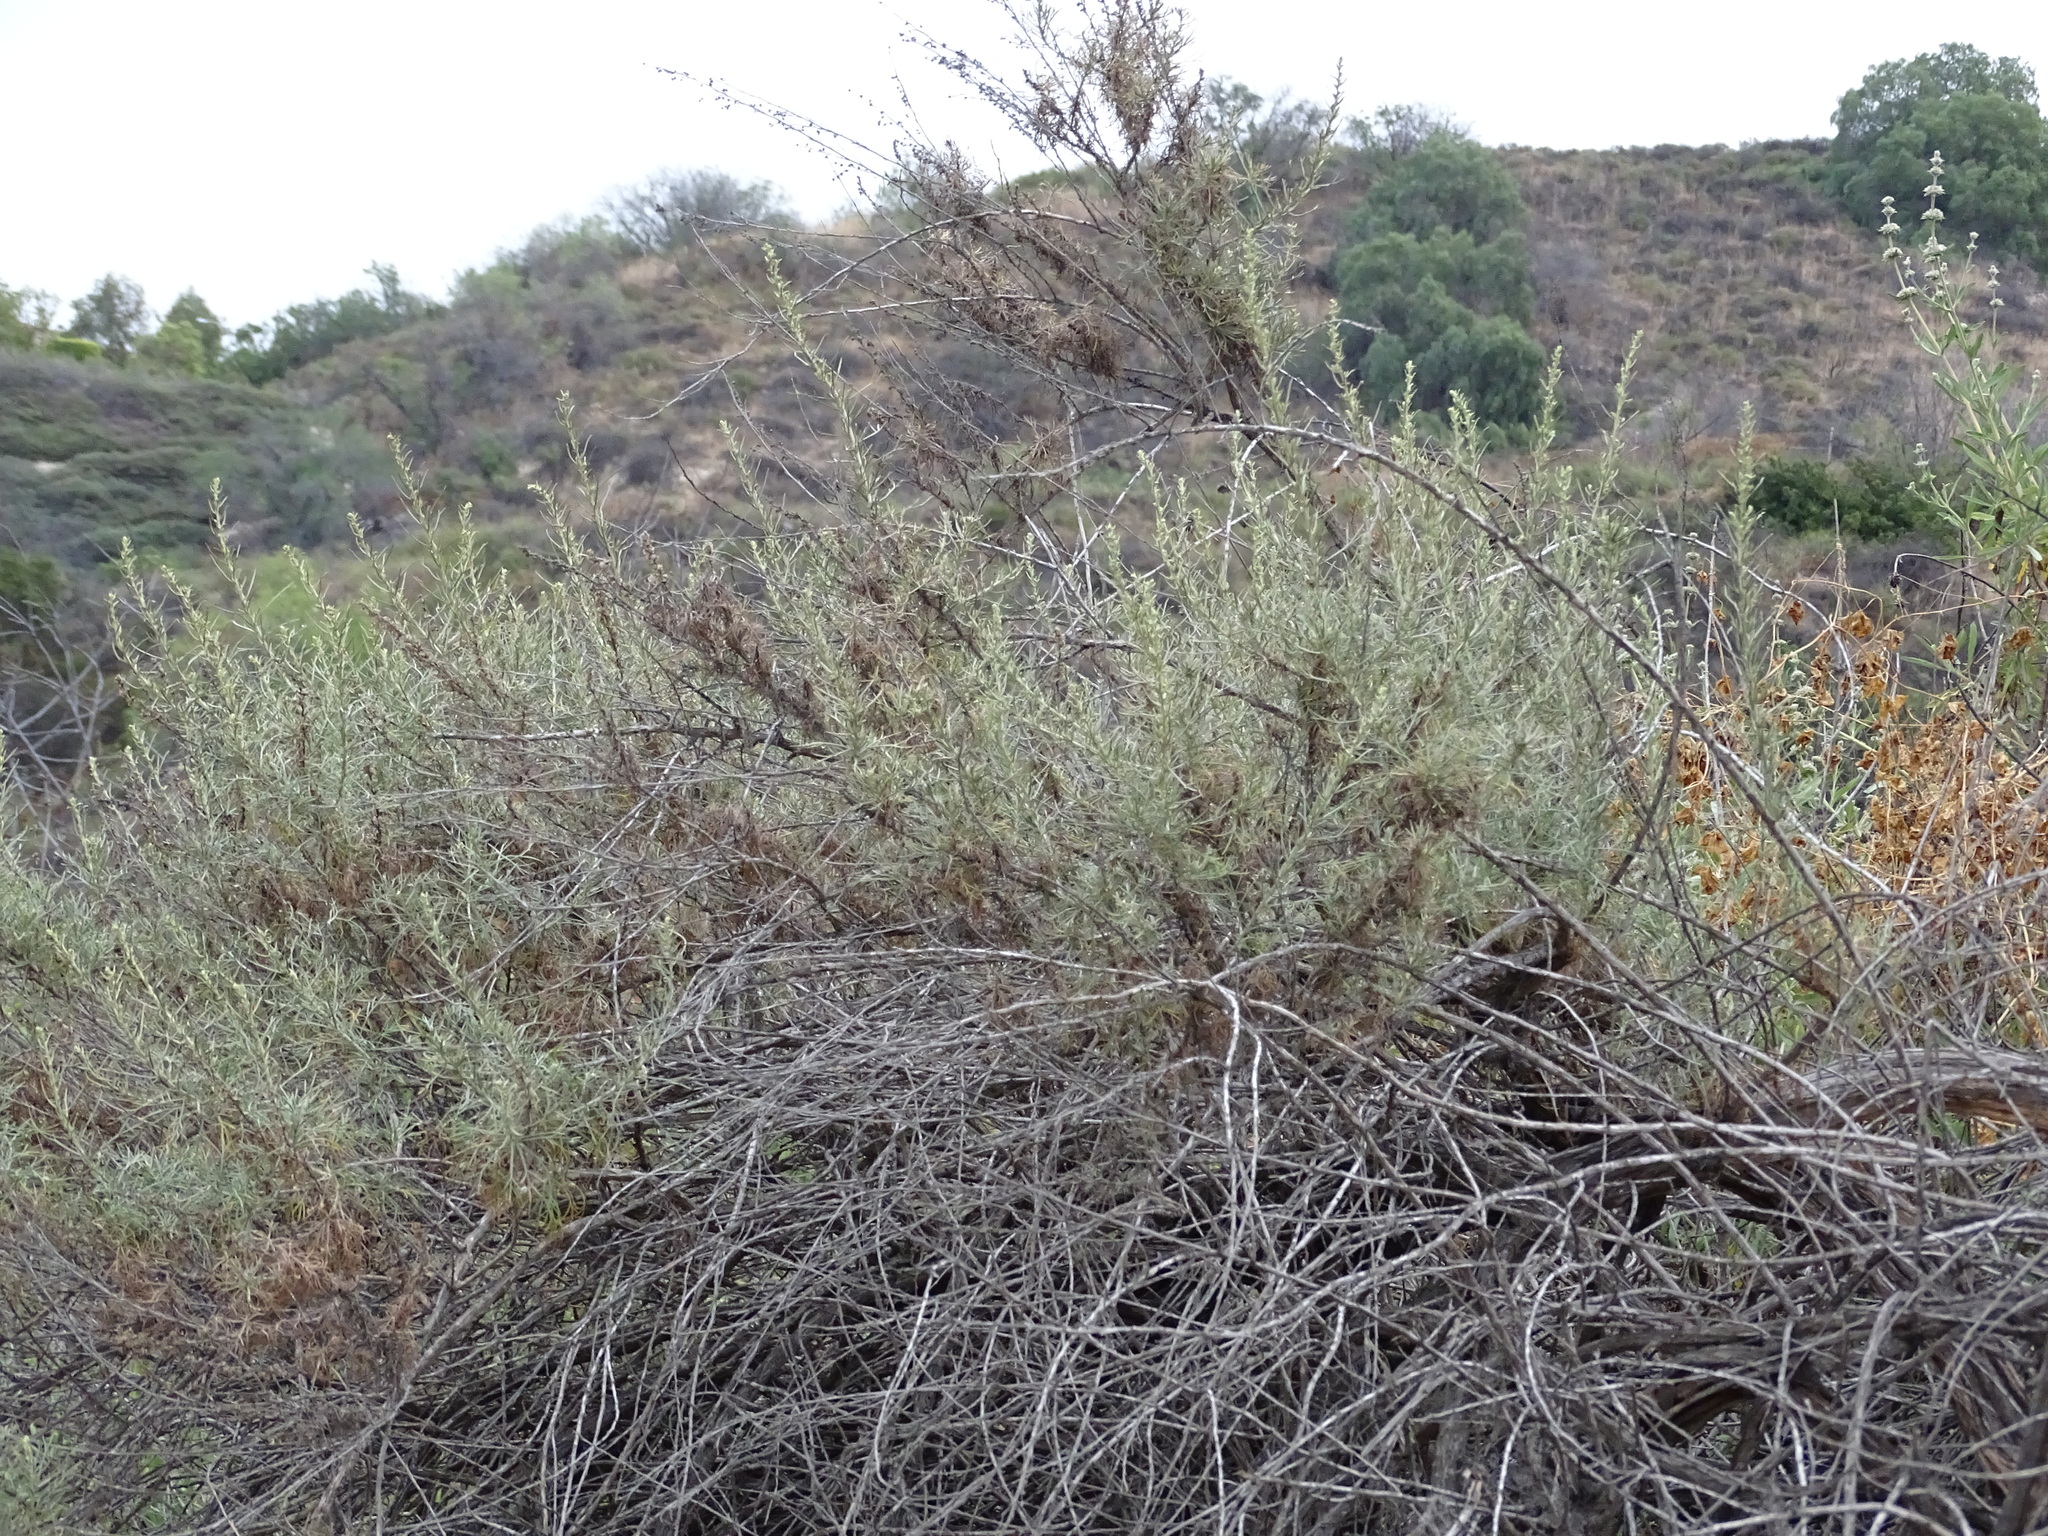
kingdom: Plantae
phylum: Tracheophyta
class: Magnoliopsida
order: Asterales
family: Asteraceae
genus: Artemisia
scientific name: Artemisia californica
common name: California sagebrush
